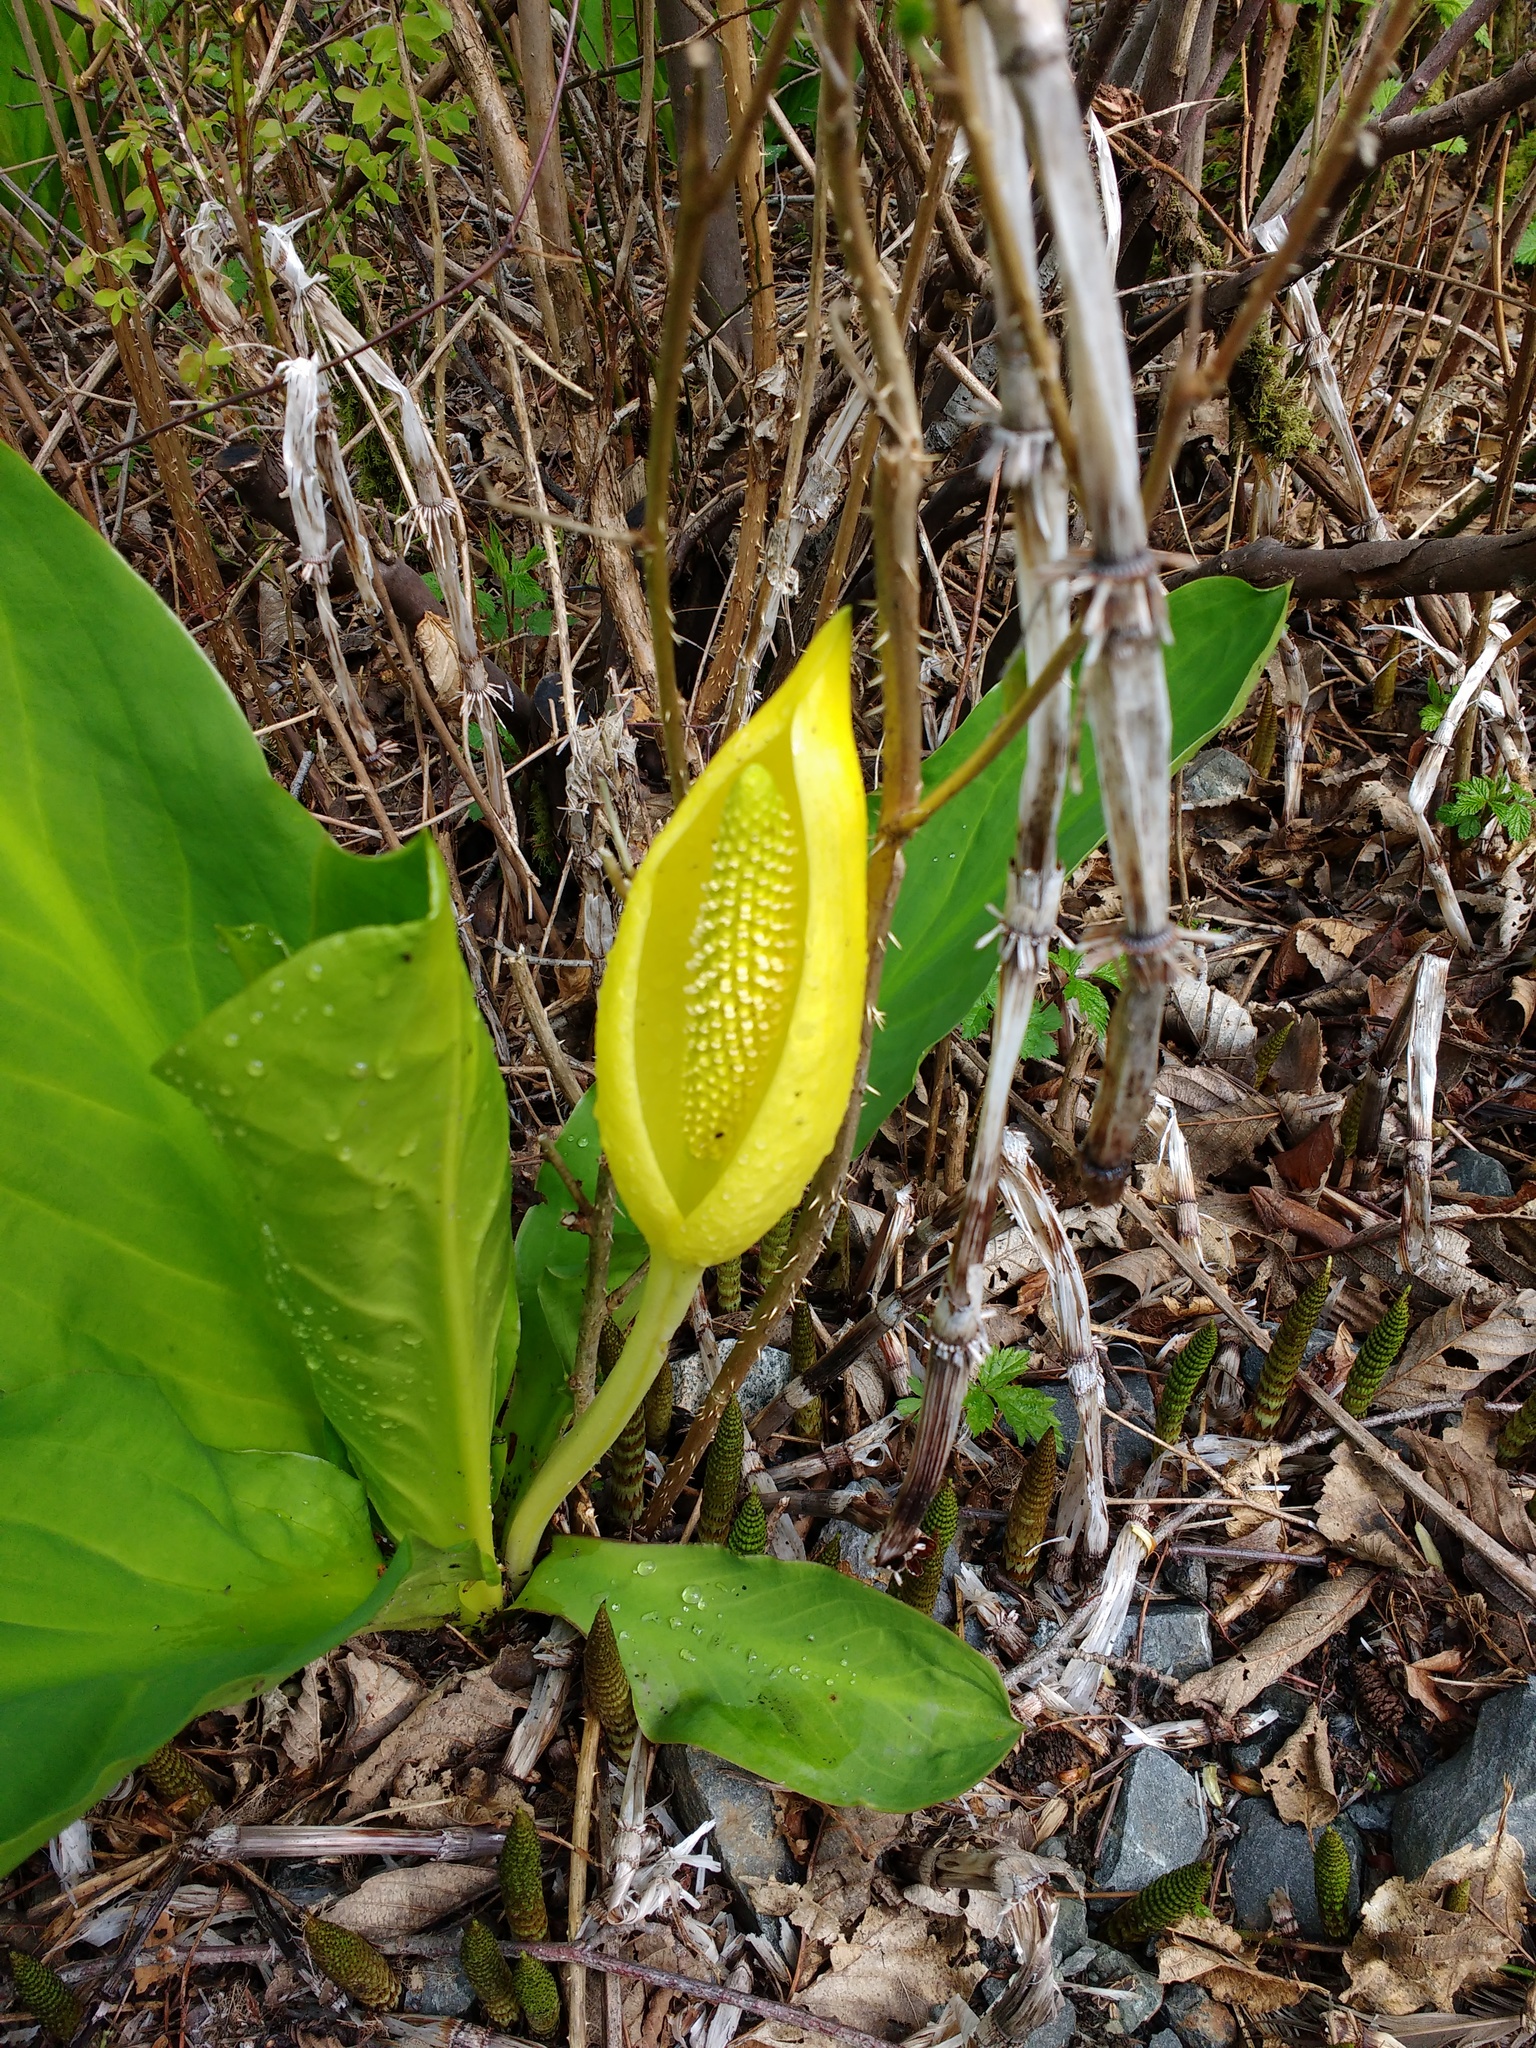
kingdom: Plantae
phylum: Tracheophyta
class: Liliopsida
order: Alismatales
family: Araceae
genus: Lysichiton
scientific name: Lysichiton americanus
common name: American skunk cabbage
